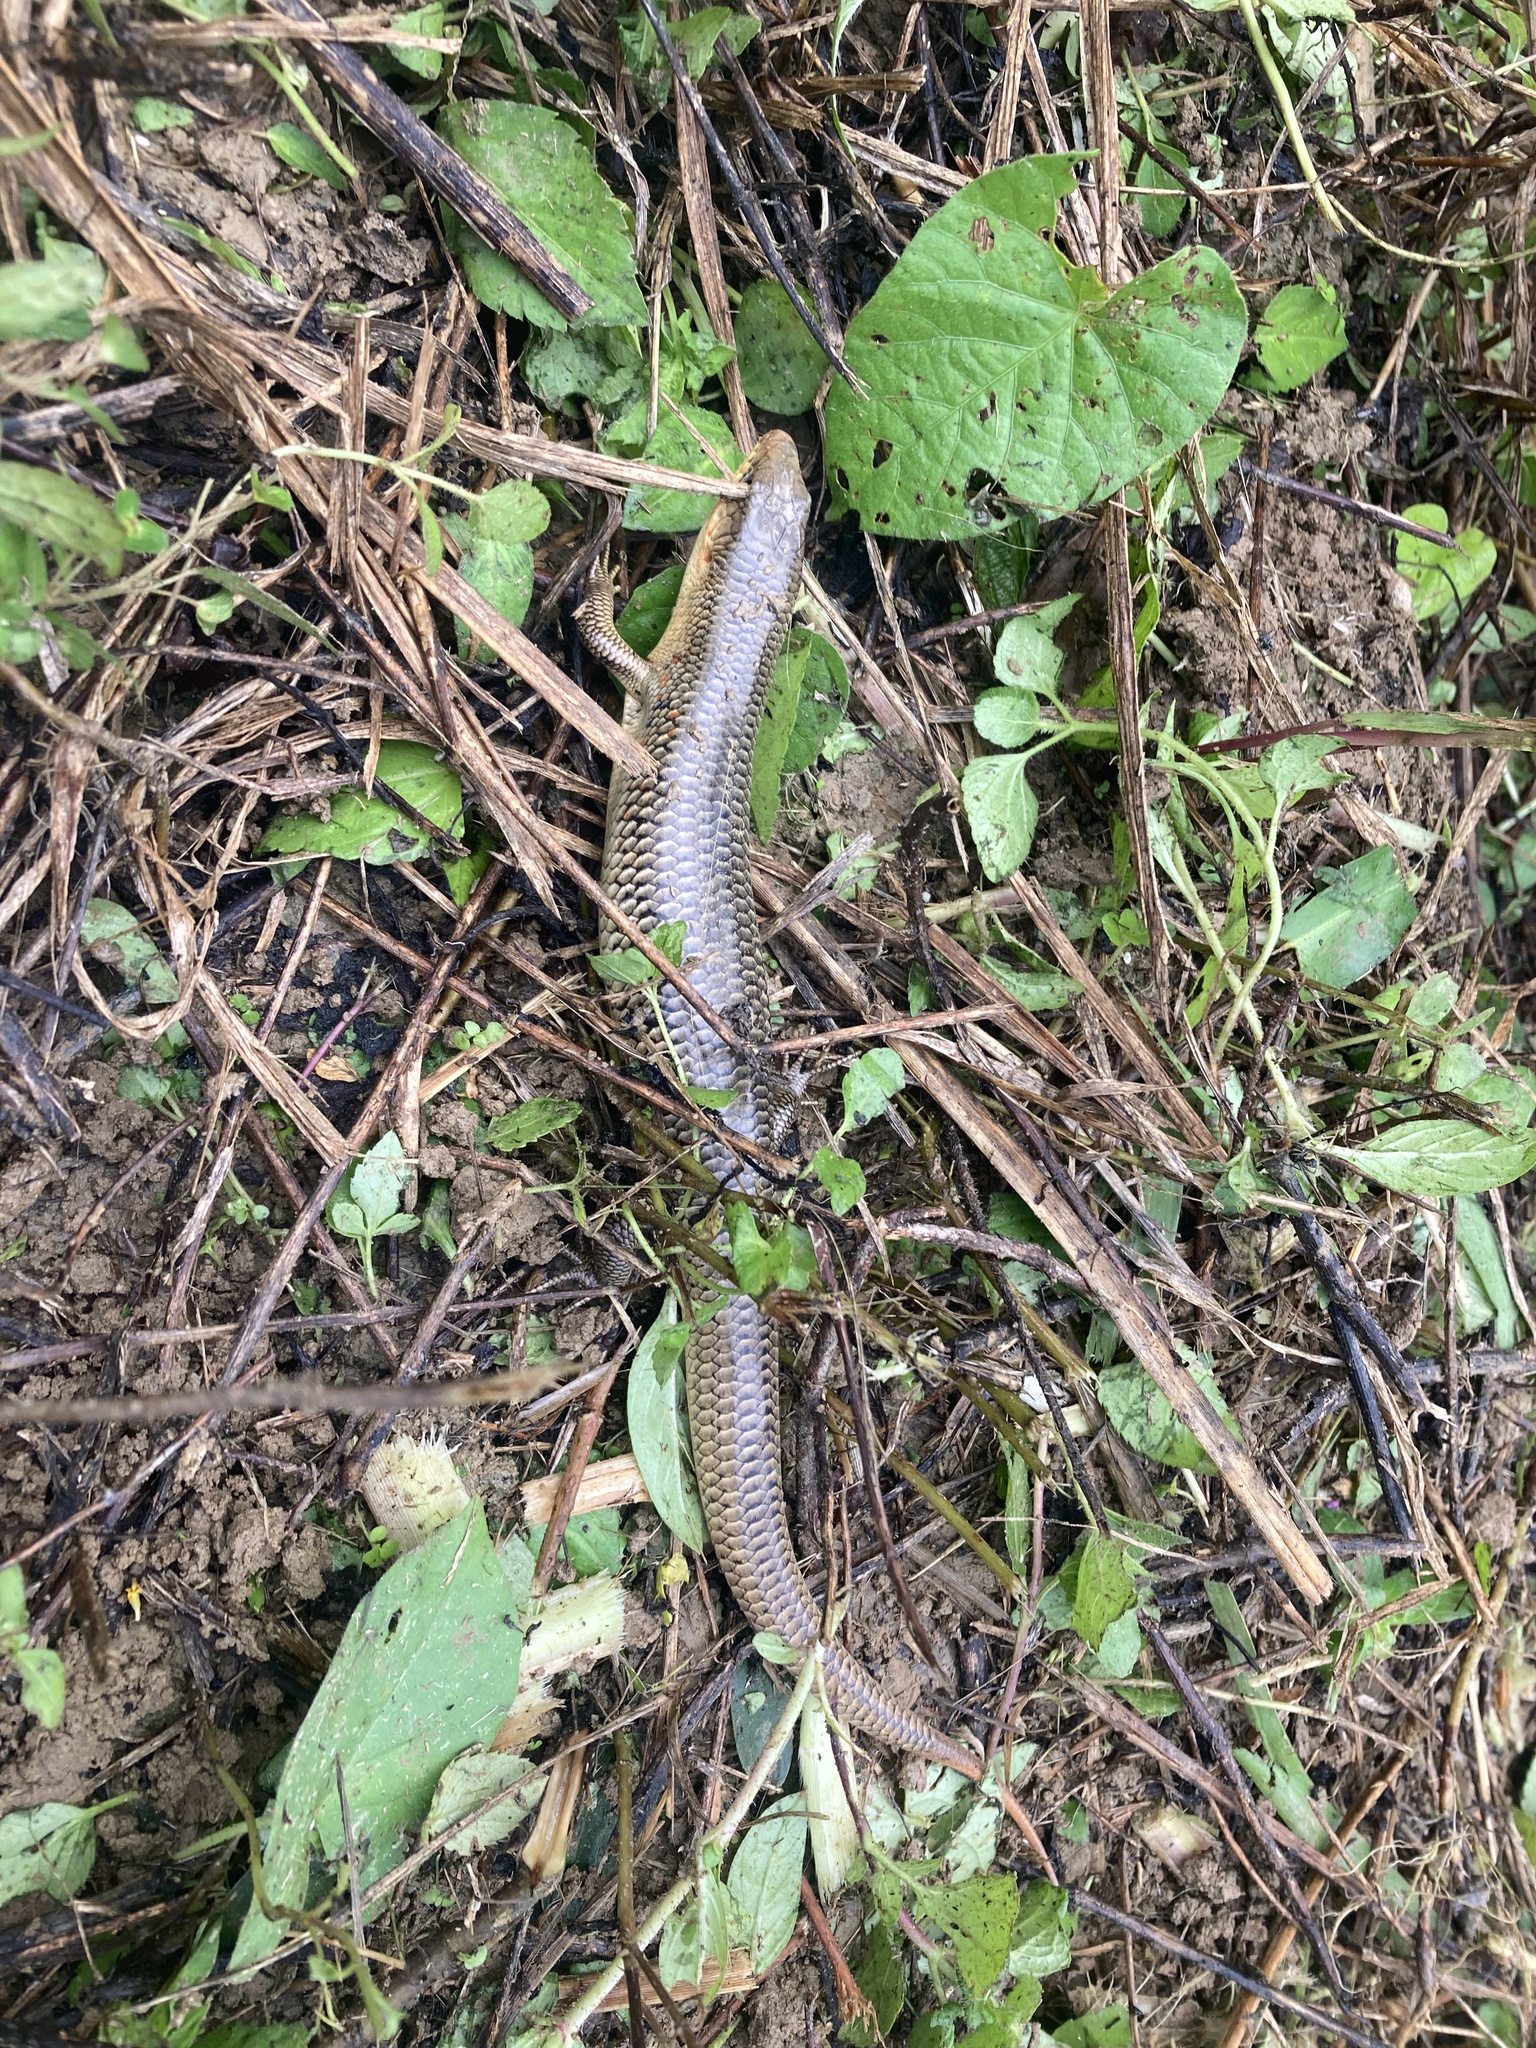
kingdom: Animalia
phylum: Chordata
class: Squamata
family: Scincidae
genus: Plestiodon
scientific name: Plestiodon chinensis
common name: Chinese blue-tailed skink
